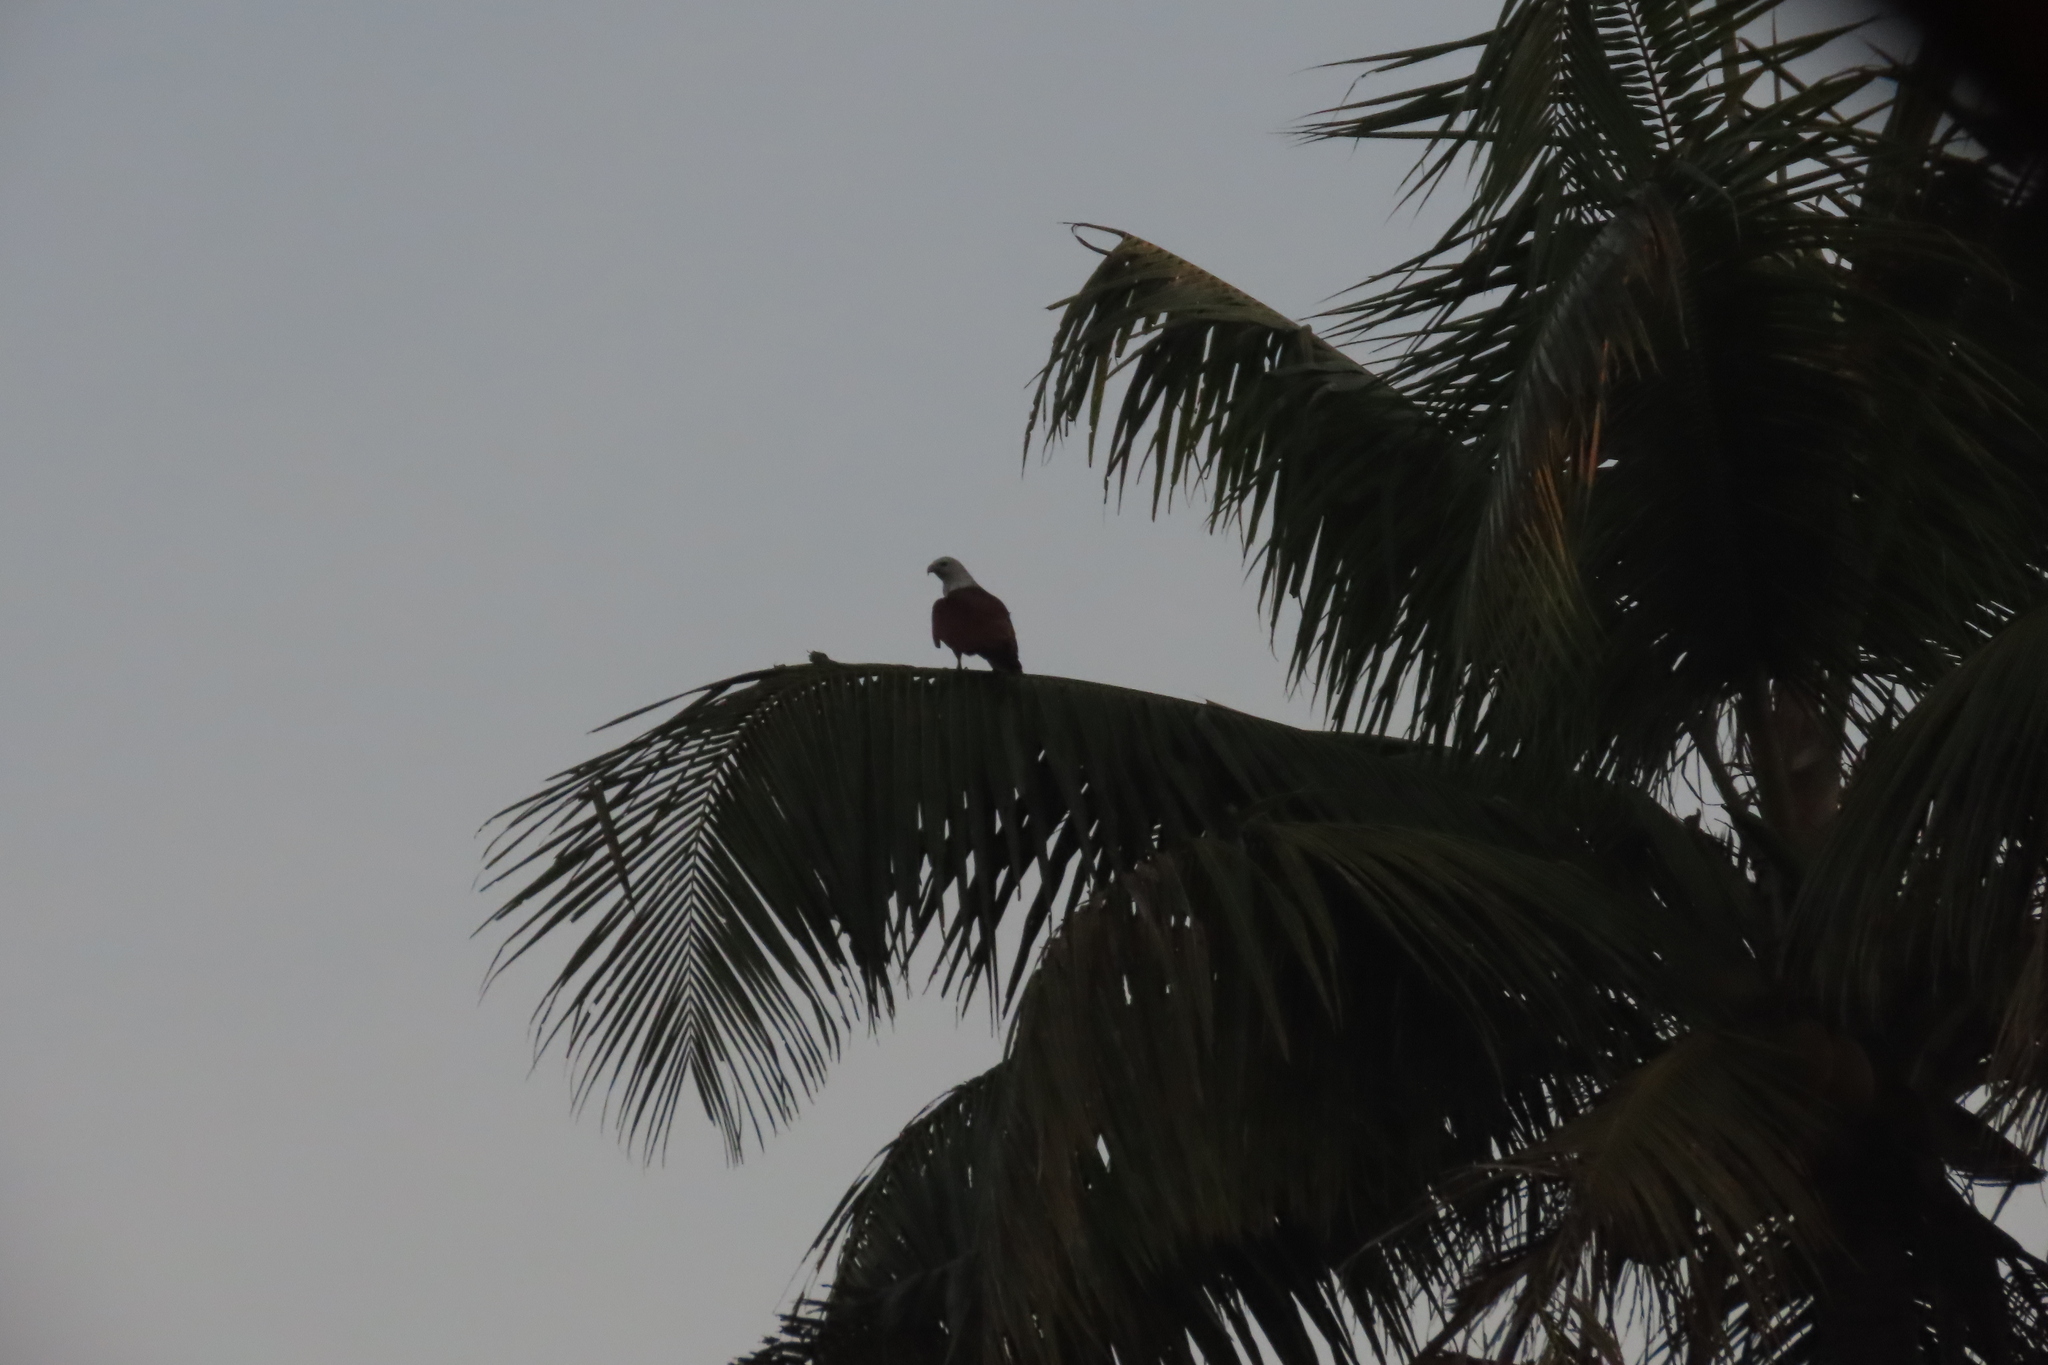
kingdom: Animalia
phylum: Chordata
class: Aves
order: Accipitriformes
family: Accipitridae
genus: Haliastur
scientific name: Haliastur indus
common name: Brahminy kite
